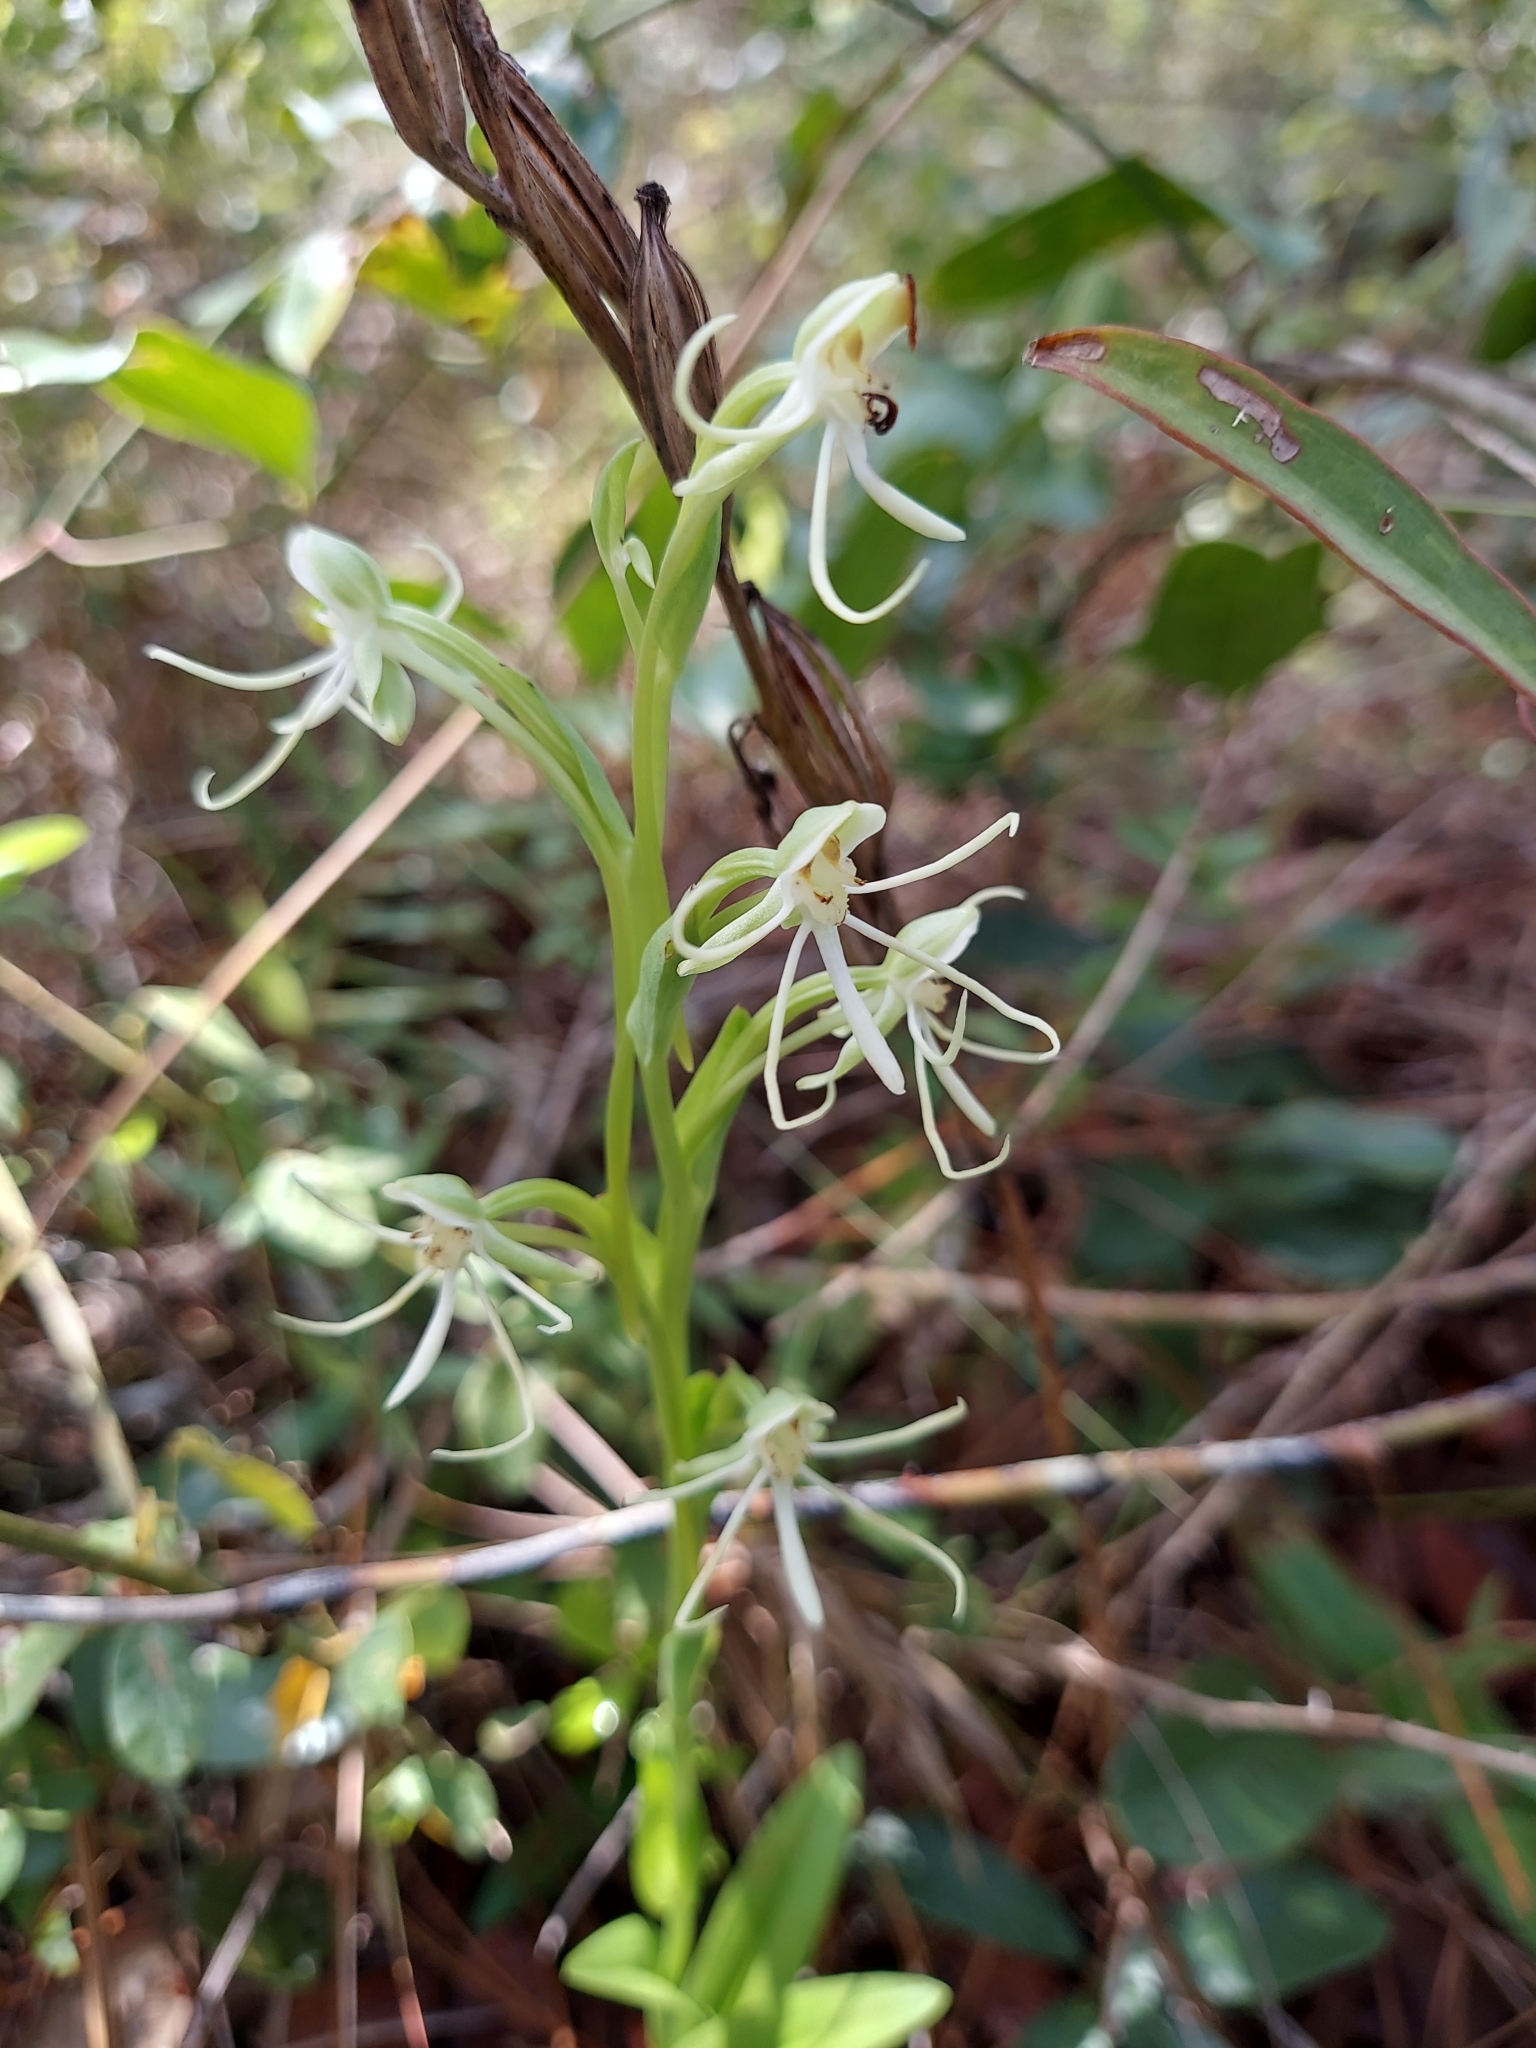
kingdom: Plantae
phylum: Tracheophyta
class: Liliopsida
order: Asparagales
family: Orchidaceae
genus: Habenaria
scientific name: Habenaria quinqueseta
